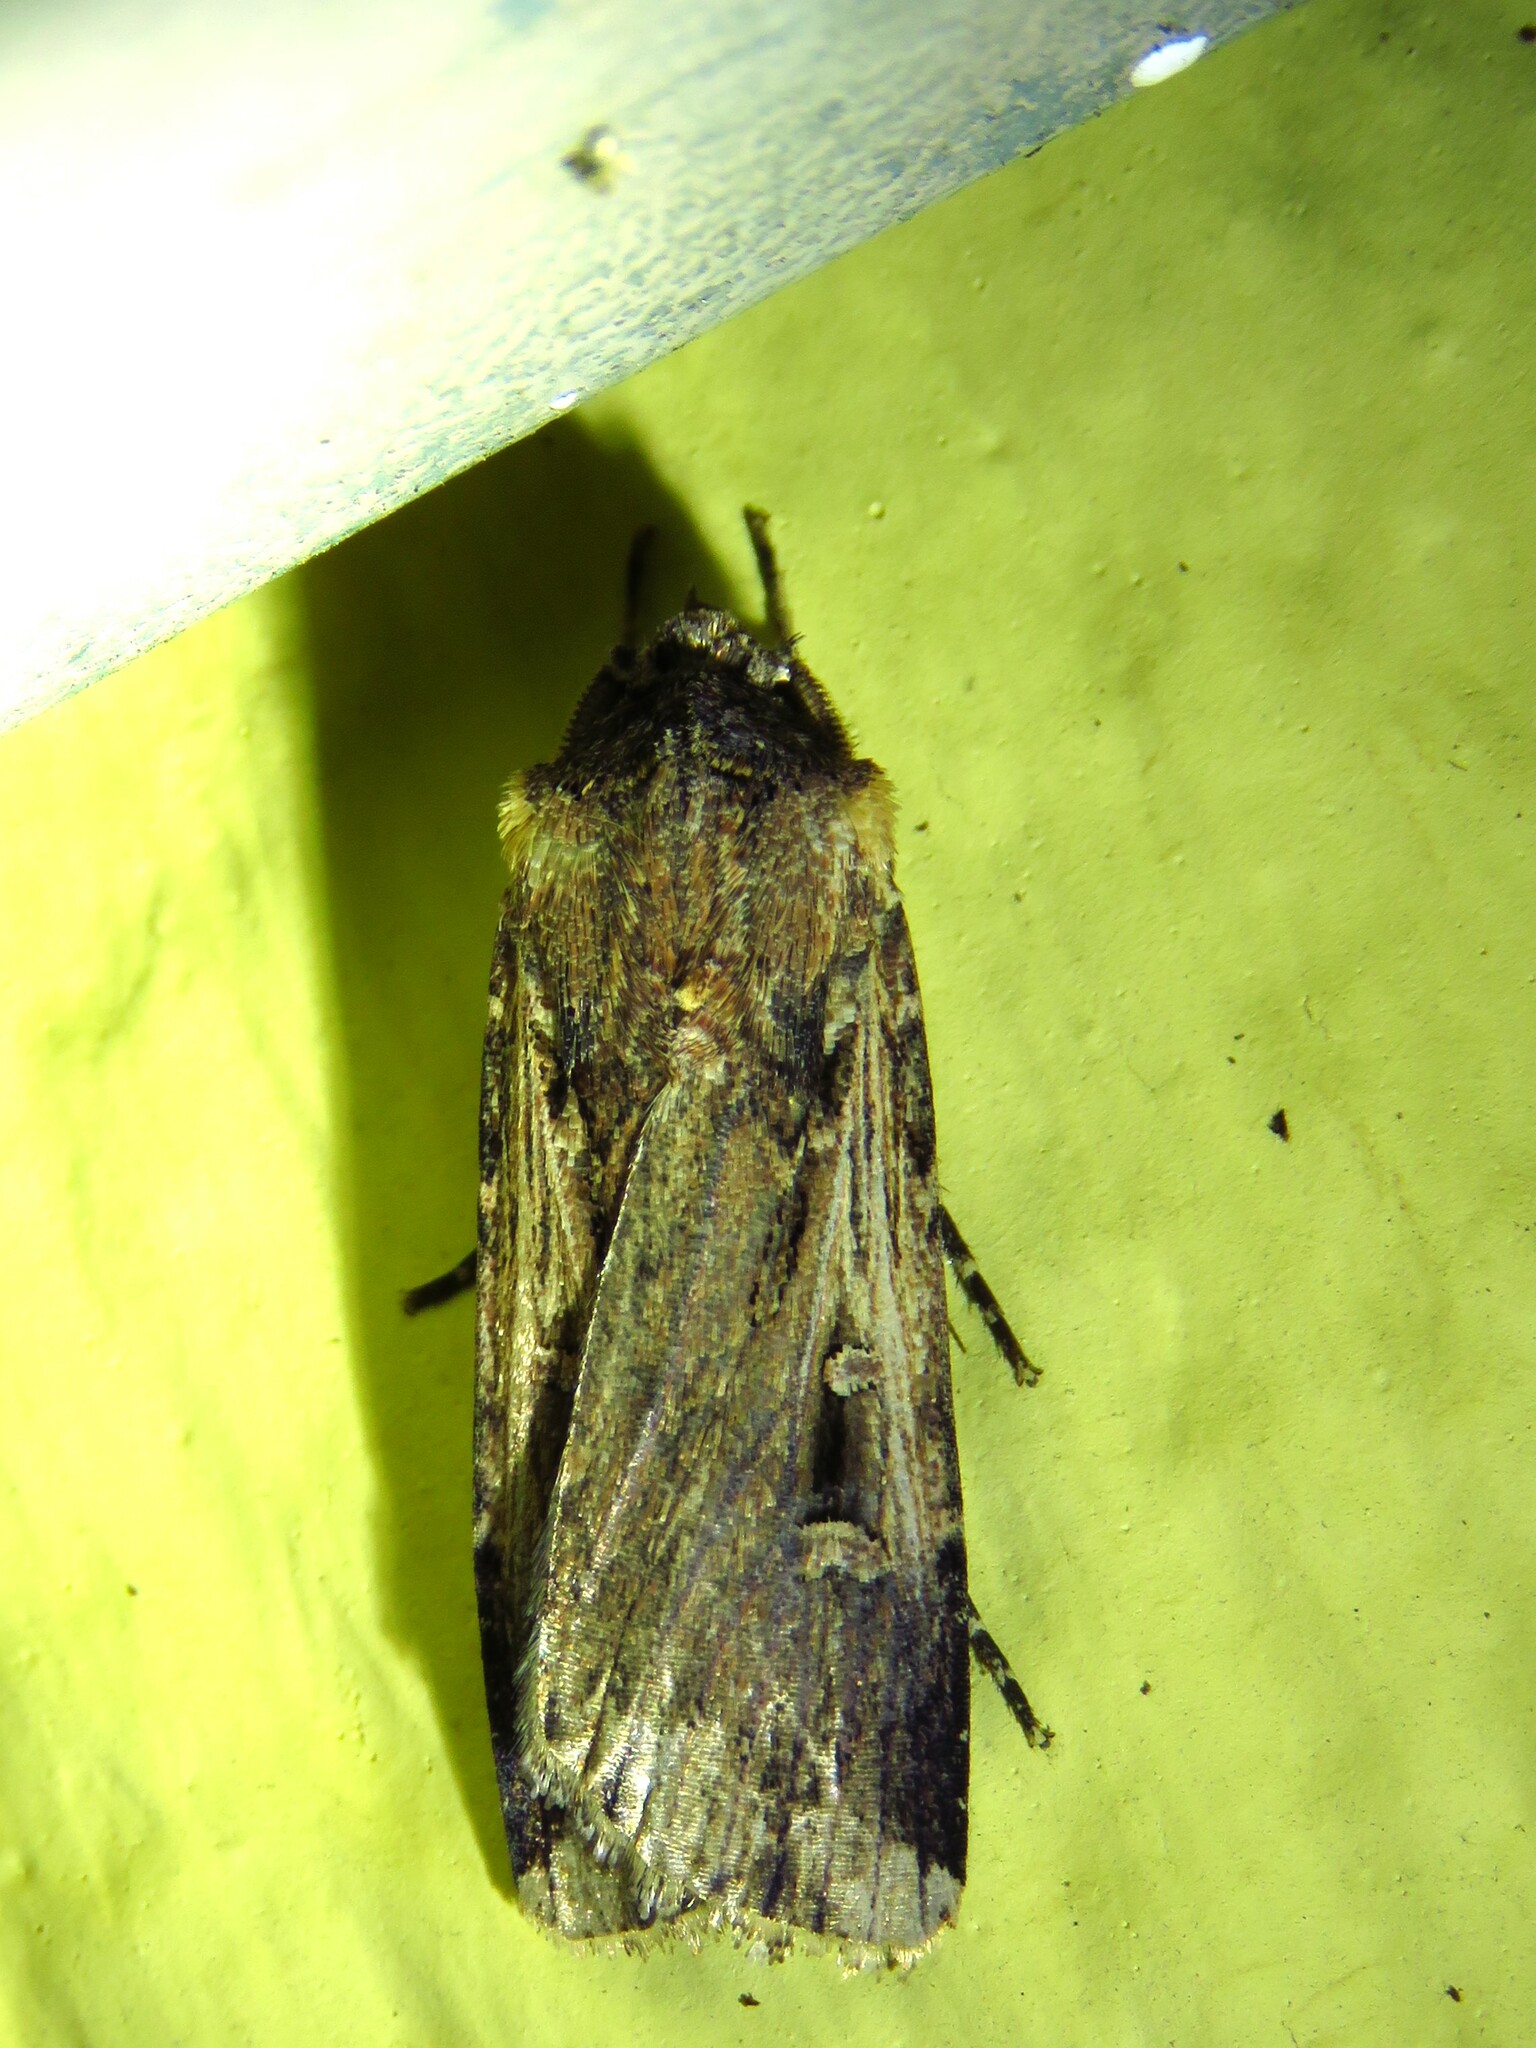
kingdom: Animalia
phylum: Arthropoda
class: Insecta
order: Lepidoptera
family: Noctuidae
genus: Feltia
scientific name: Feltia subterranea
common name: Granulate cutworm
